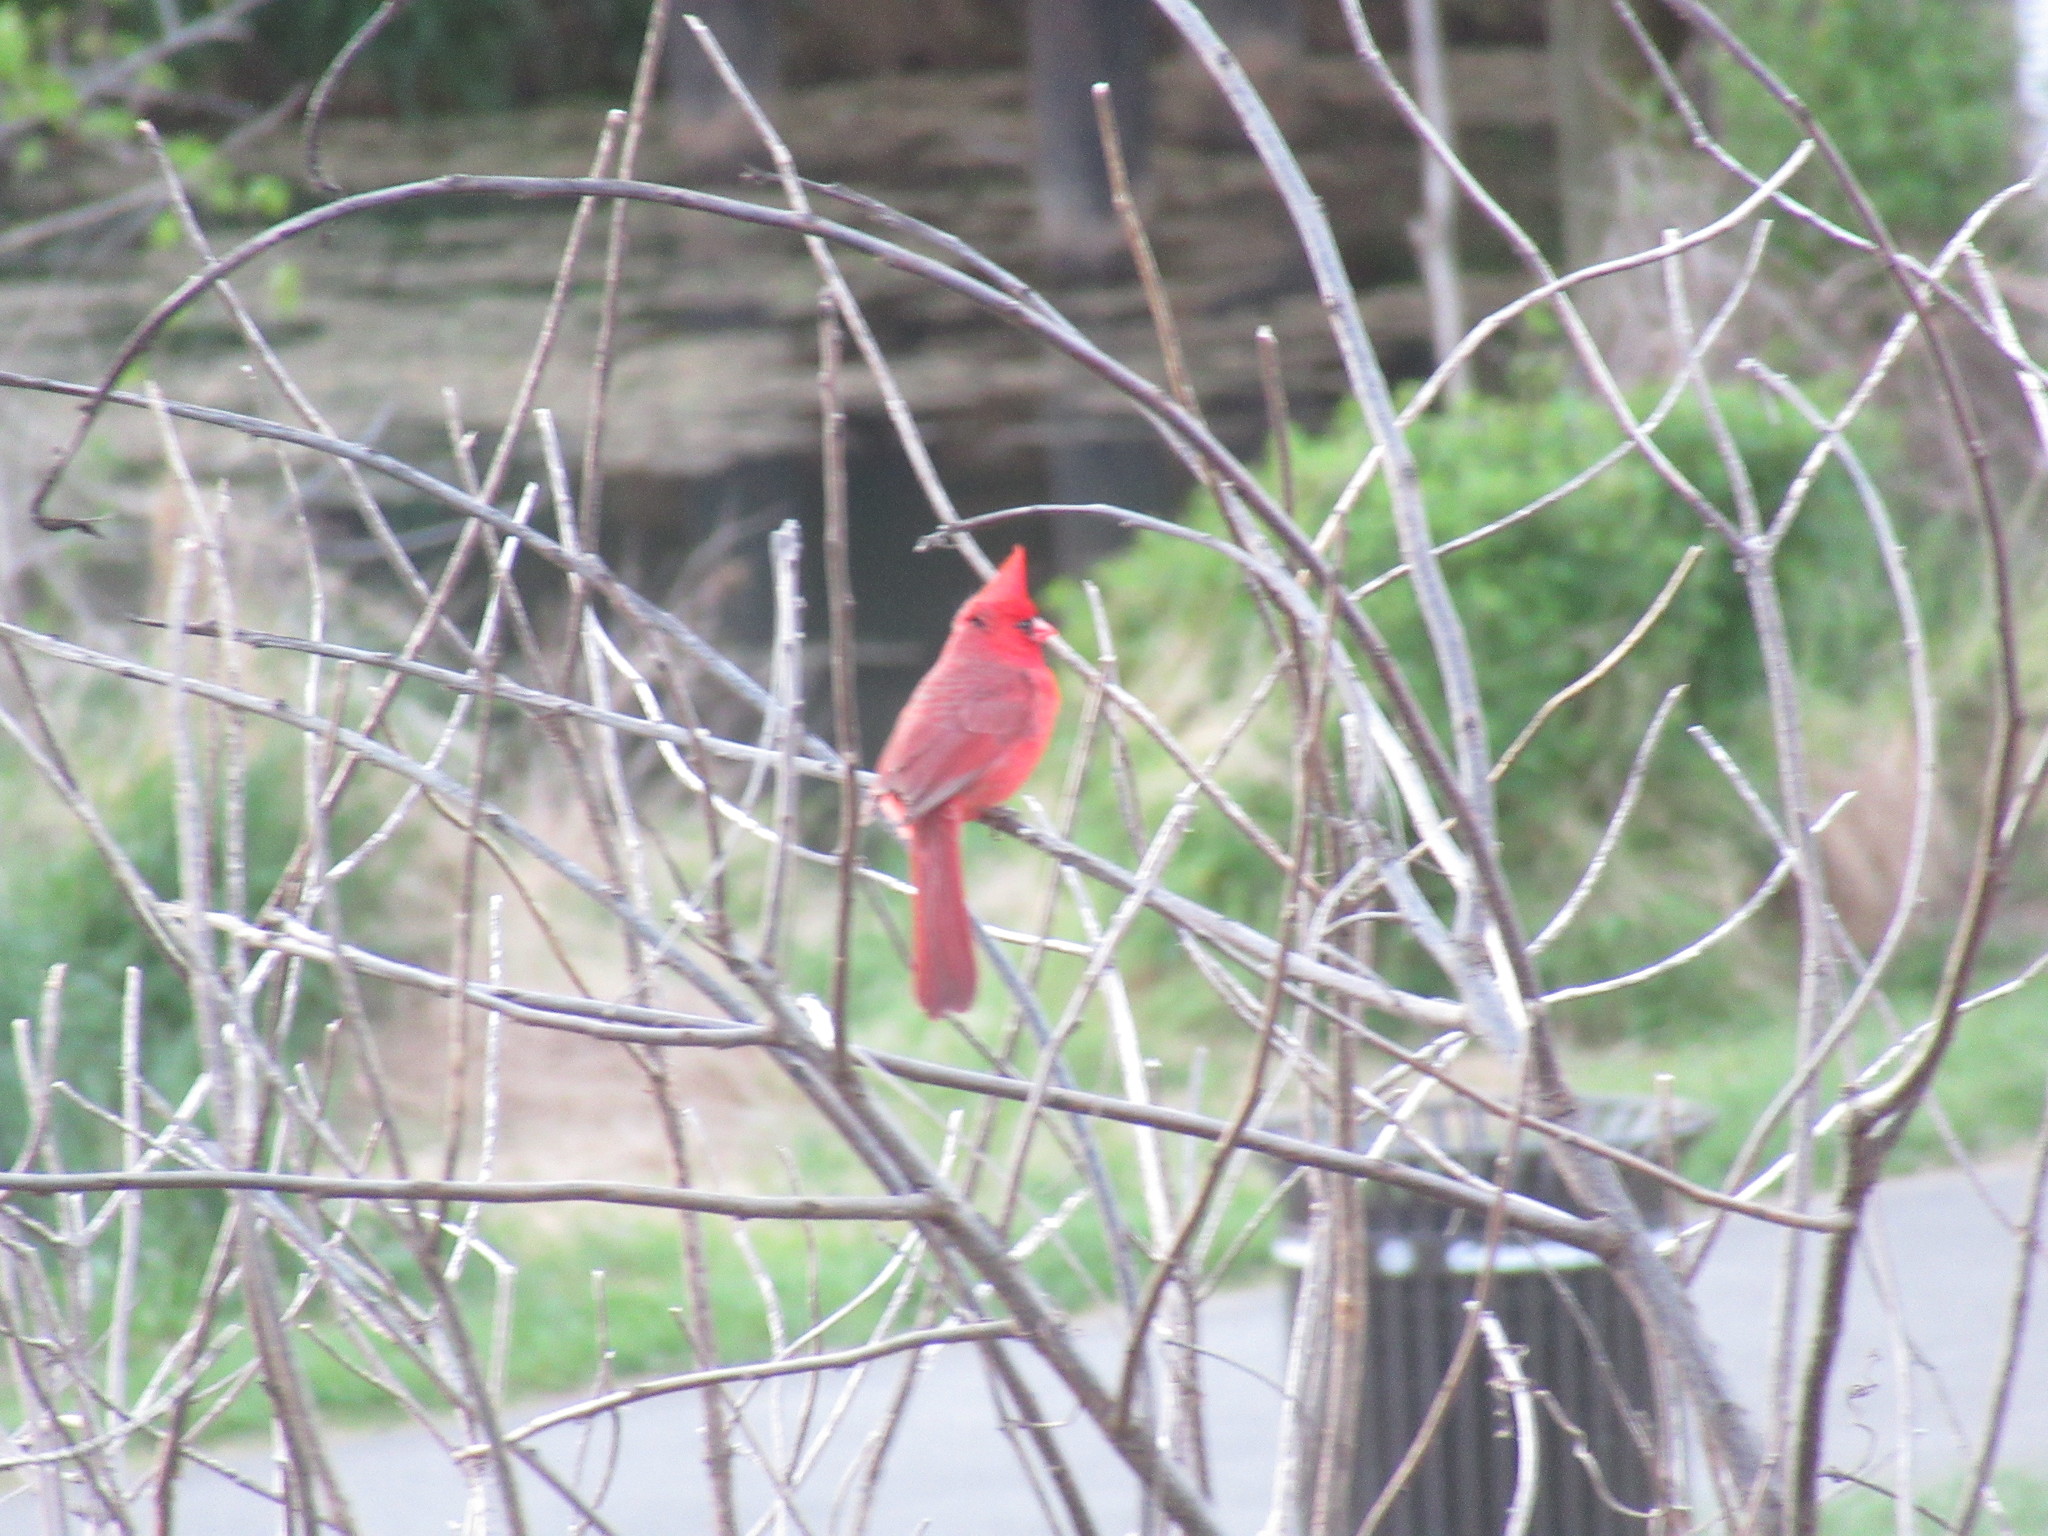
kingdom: Animalia
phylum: Chordata
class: Aves
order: Passeriformes
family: Cardinalidae
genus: Cardinalis
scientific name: Cardinalis cardinalis
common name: Northern cardinal
